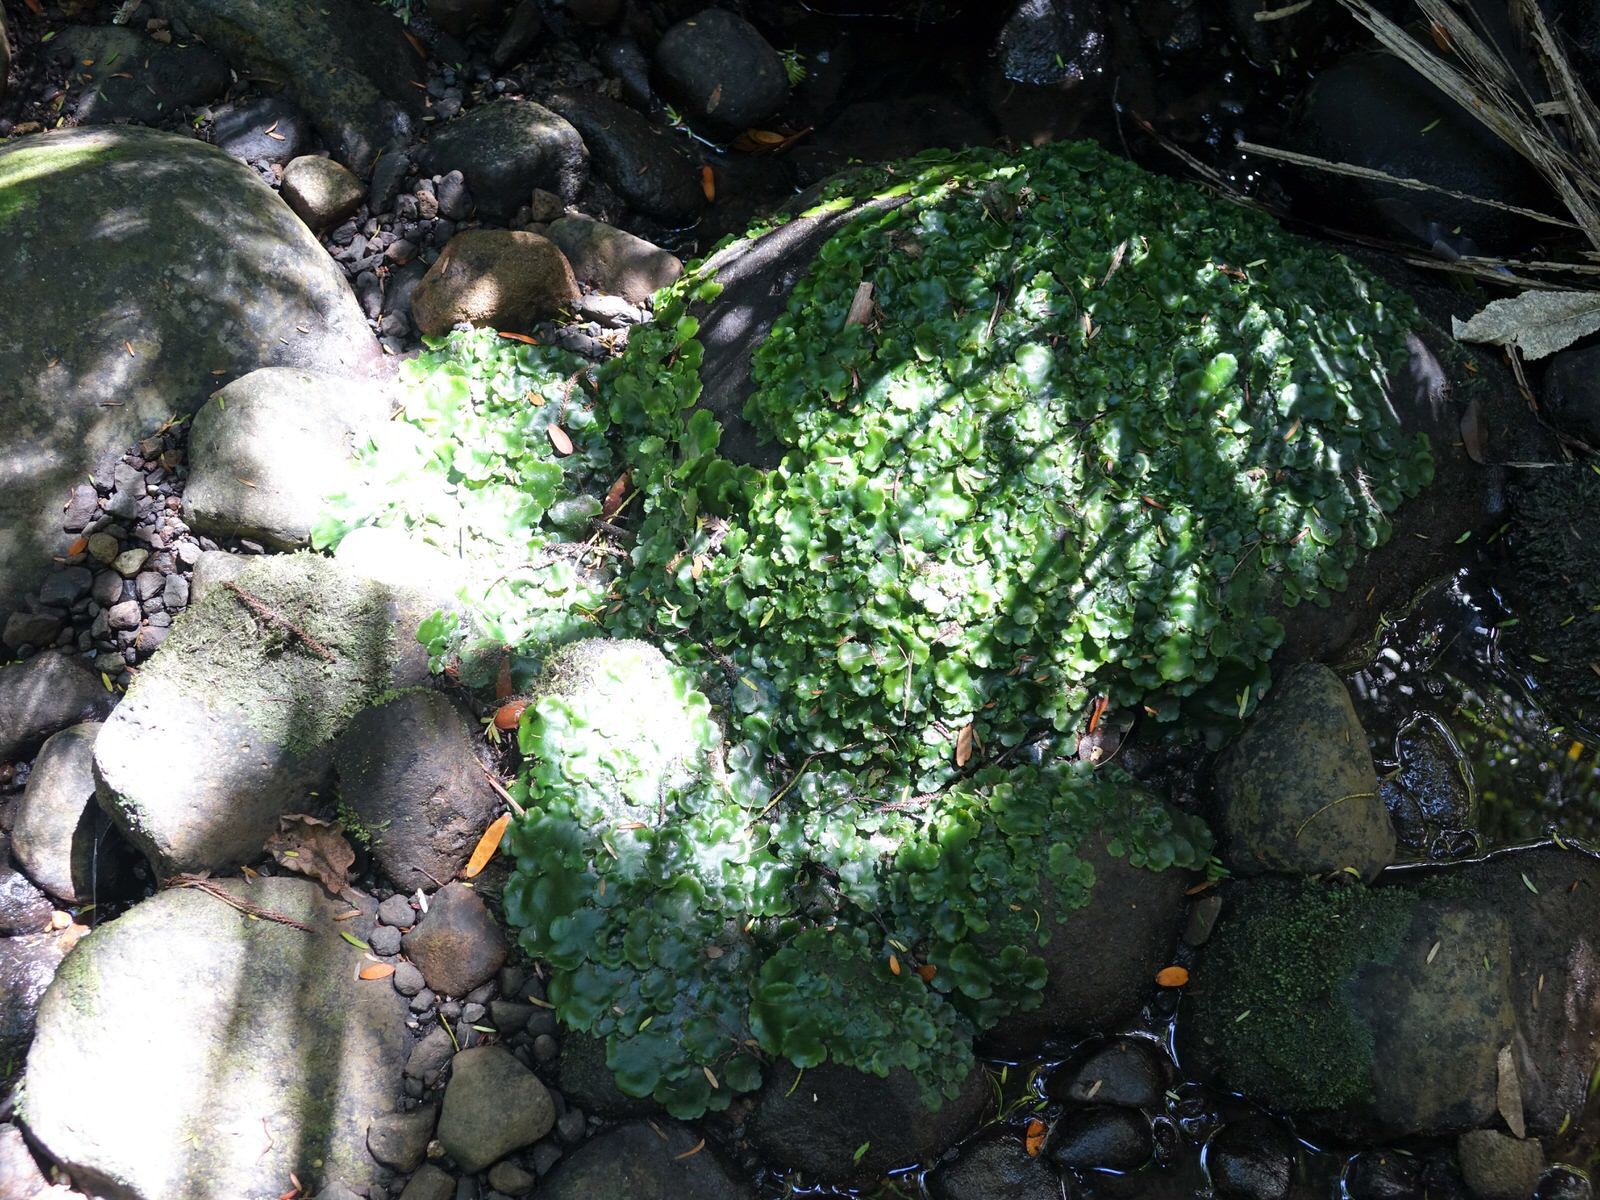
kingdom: Plantae
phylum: Marchantiophyta
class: Marchantiopsida
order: Marchantiales
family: Monocleaceae
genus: Monoclea
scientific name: Monoclea forsteri
